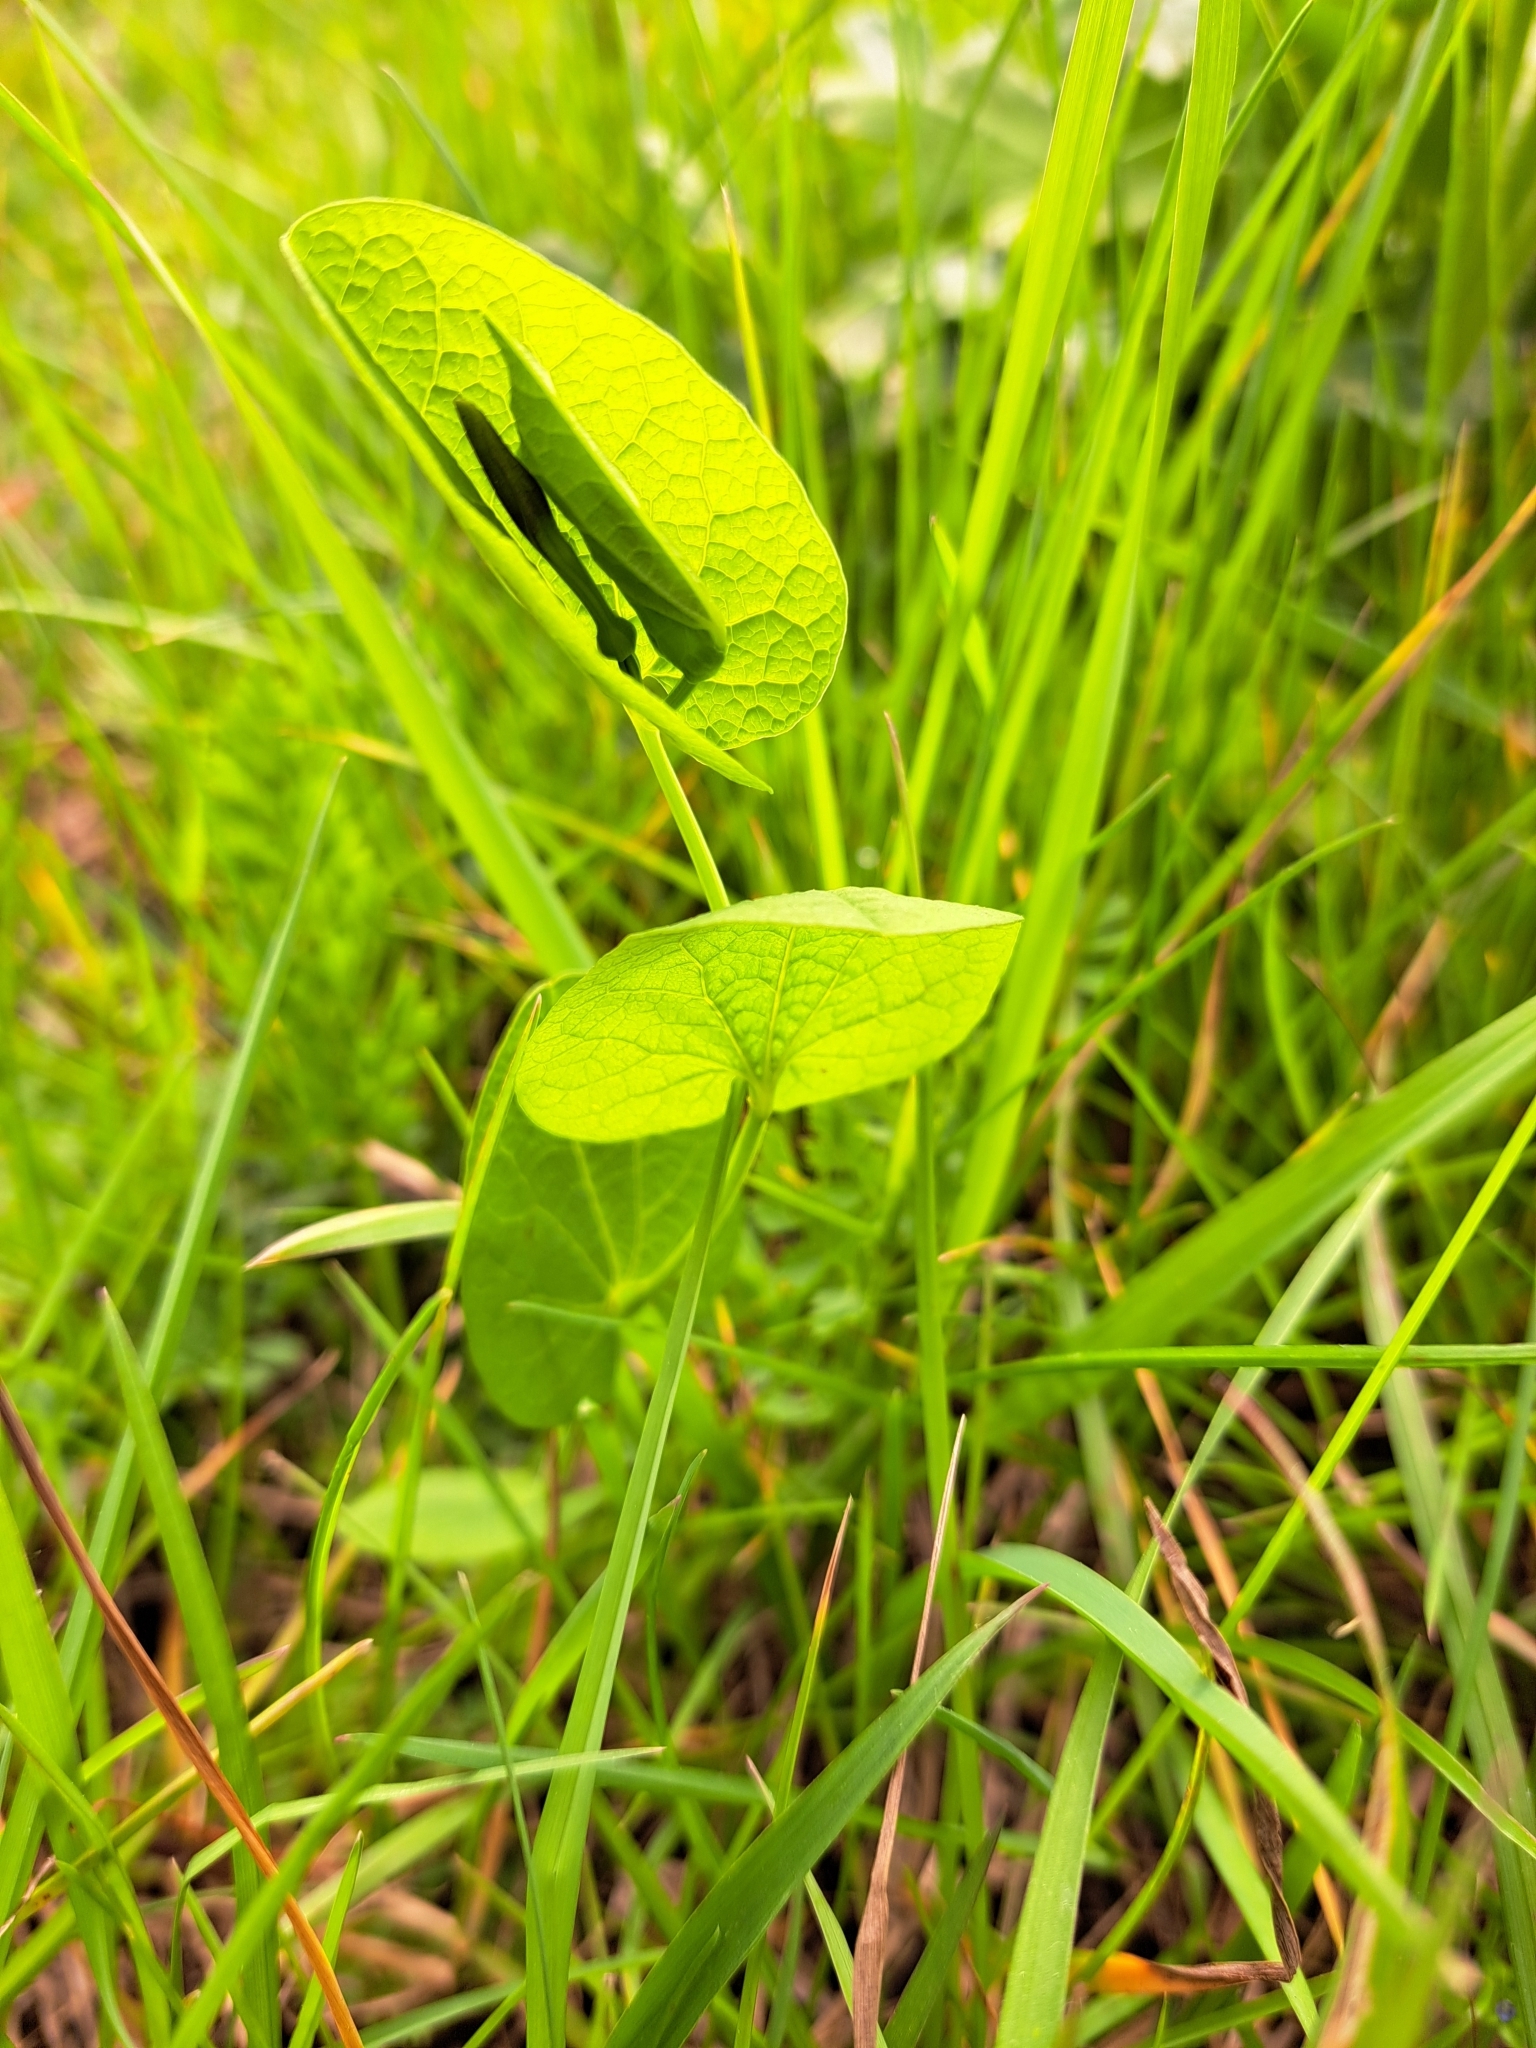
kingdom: Plantae
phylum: Tracheophyta
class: Magnoliopsida
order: Piperales
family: Aristolochiaceae
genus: Aristolochia
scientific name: Aristolochia rotunda
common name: Smearwort
